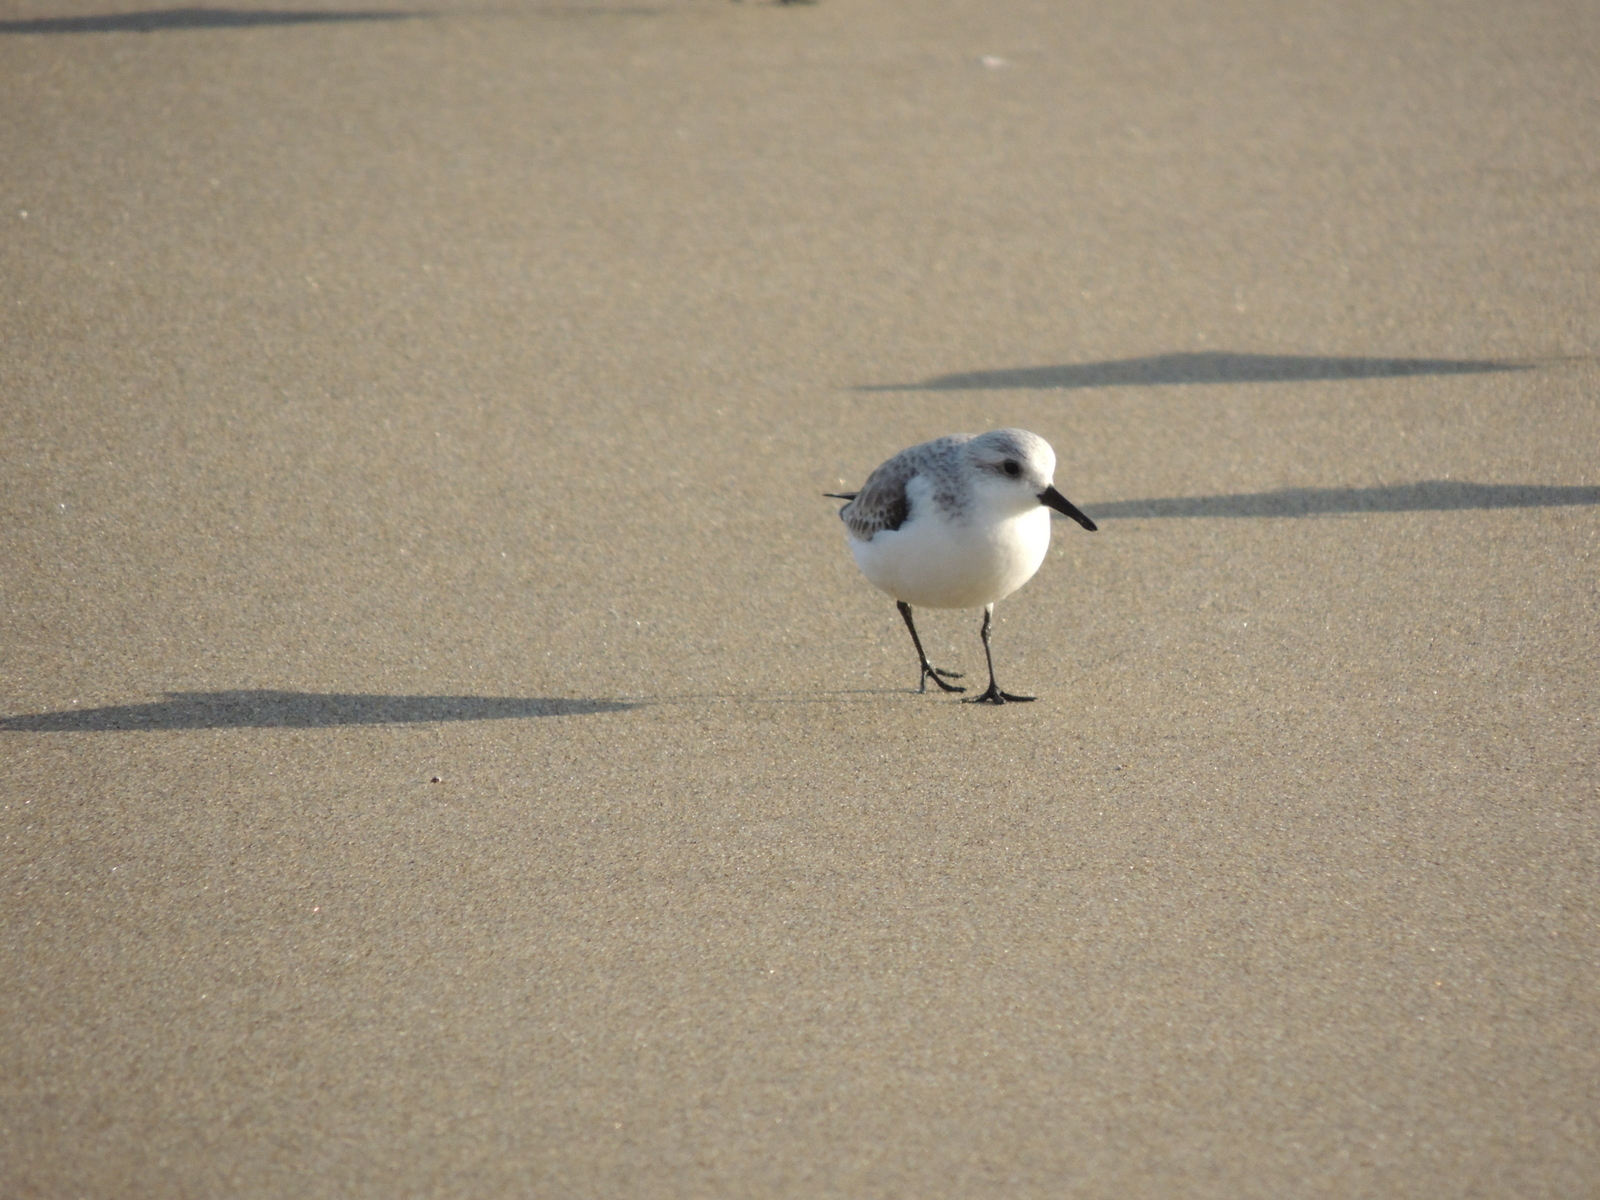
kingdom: Animalia
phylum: Chordata
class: Aves
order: Charadriiformes
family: Scolopacidae
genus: Calidris
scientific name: Calidris alba
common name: Sanderling
